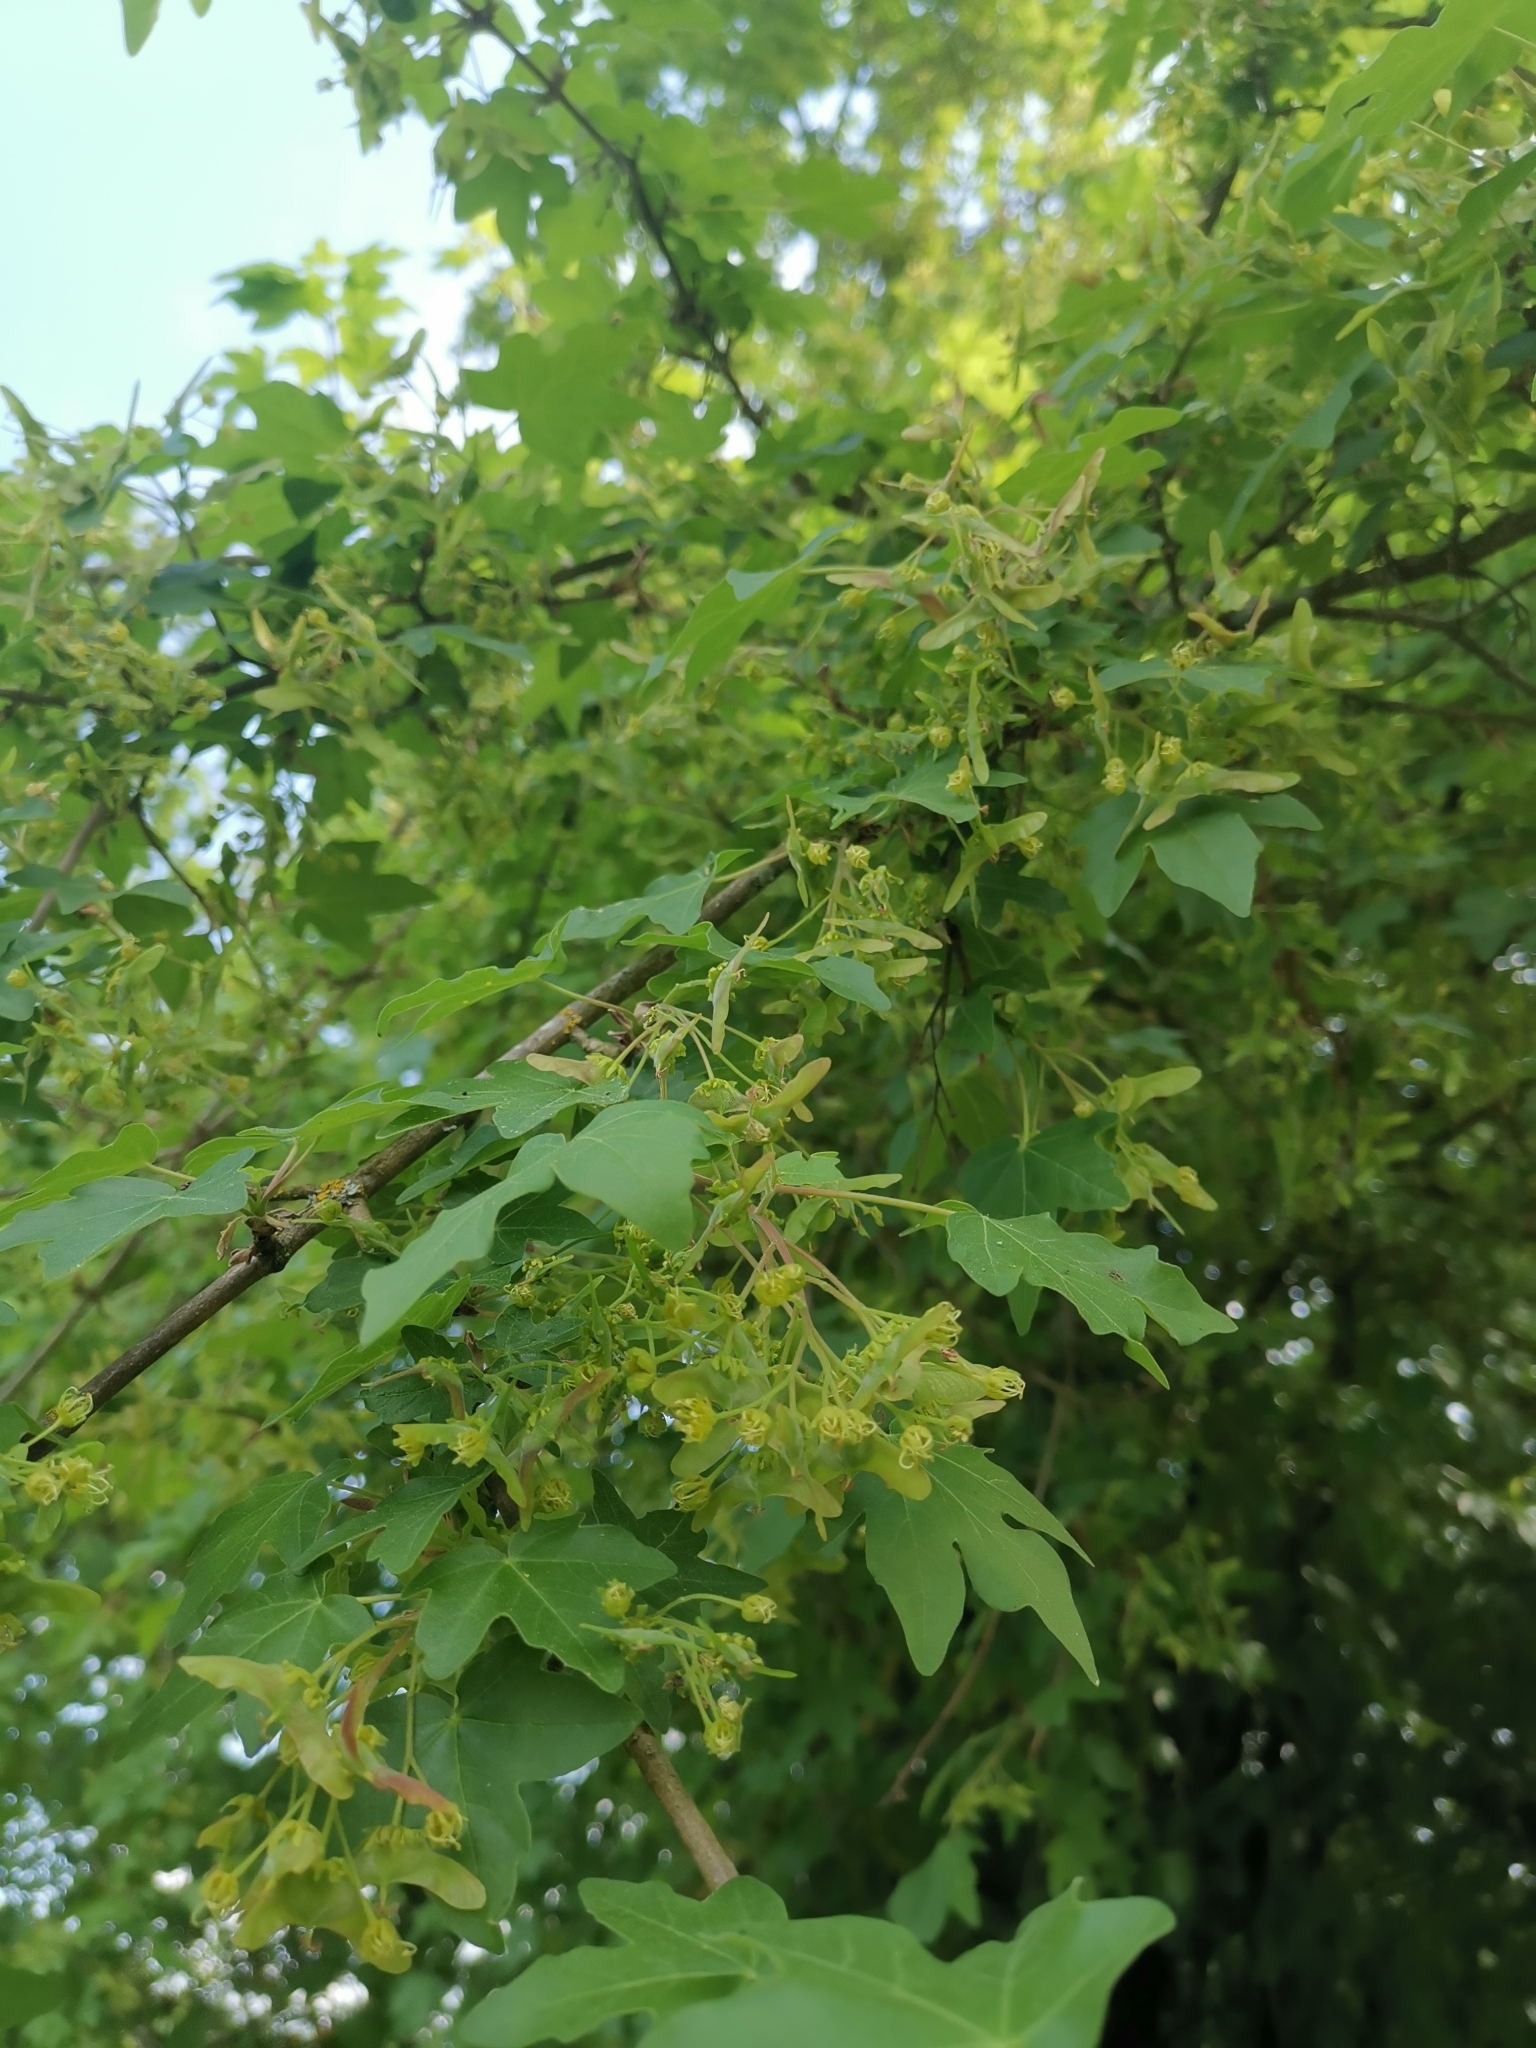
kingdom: Plantae
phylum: Tracheophyta
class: Magnoliopsida
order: Sapindales
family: Sapindaceae
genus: Acer
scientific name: Acer campestre
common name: Field maple
